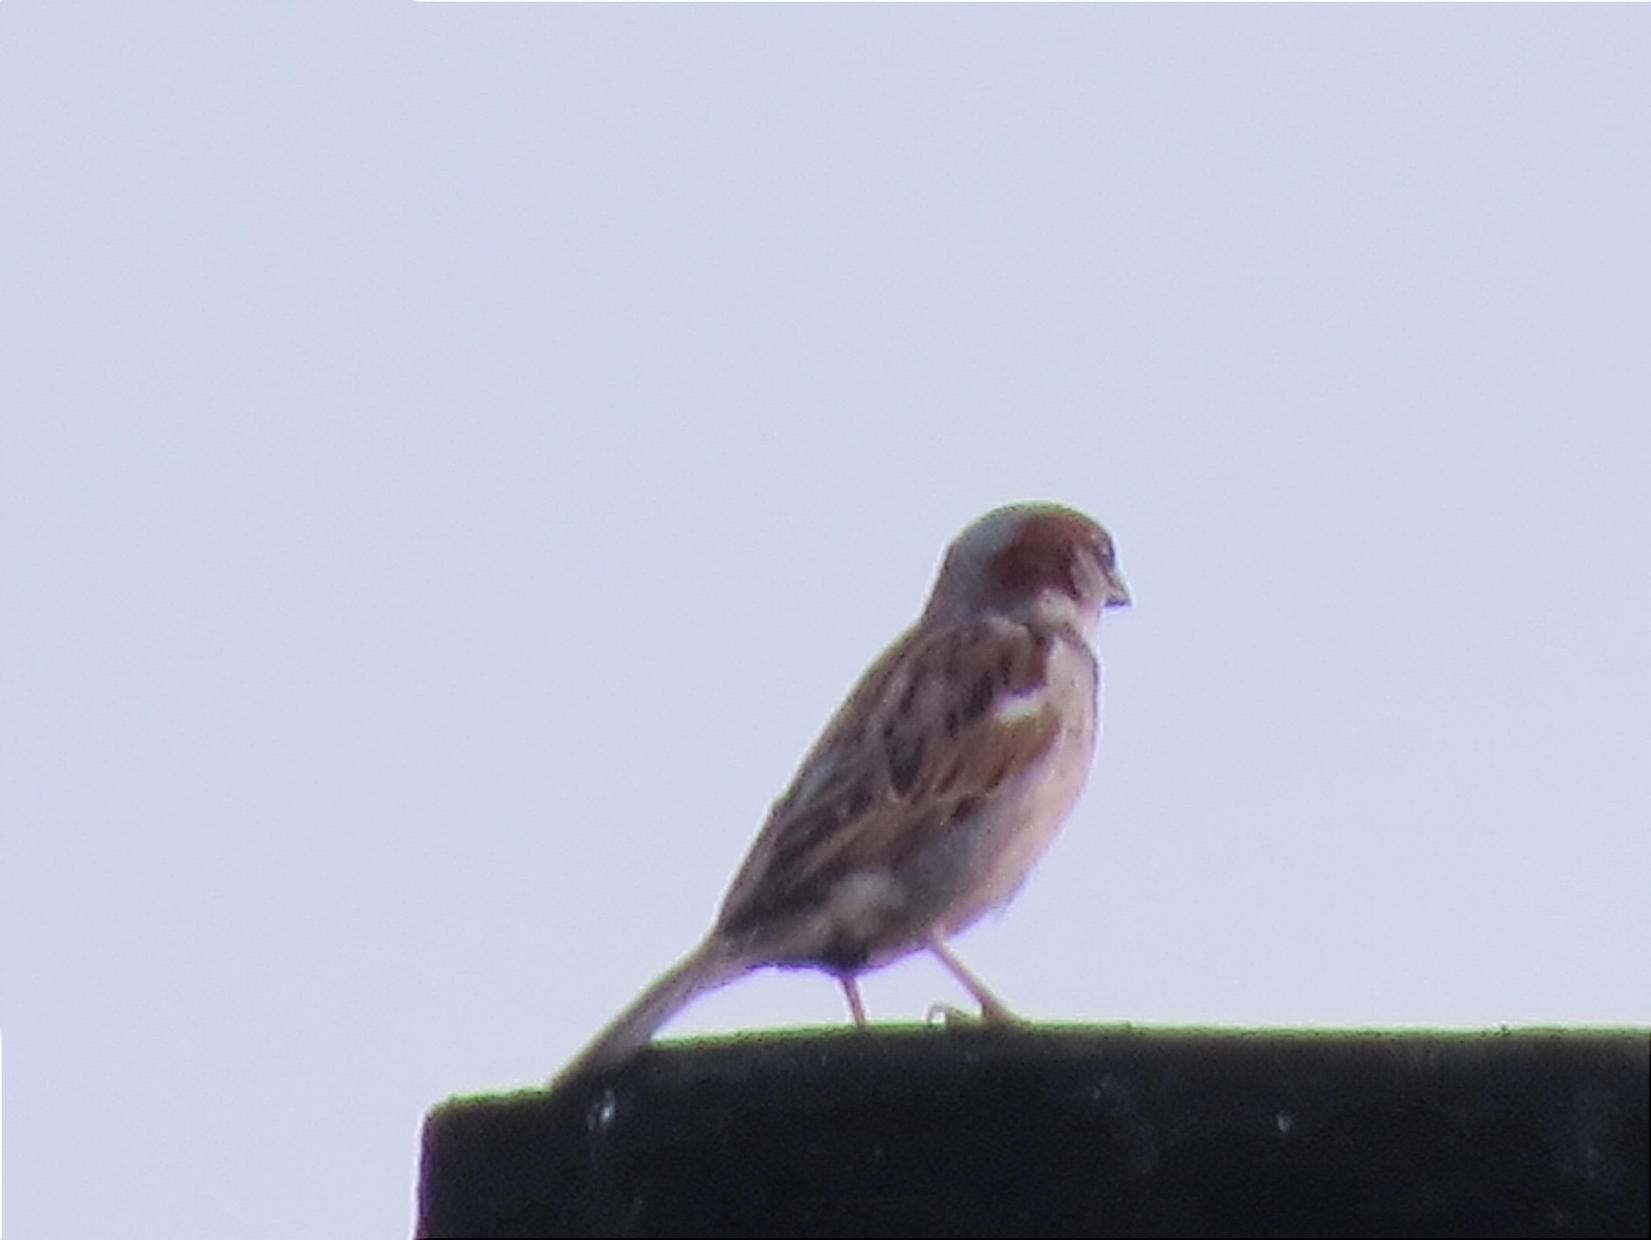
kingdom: Animalia
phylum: Chordata
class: Aves
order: Passeriformes
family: Passeridae
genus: Passer
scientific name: Passer domesticus
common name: House sparrow
